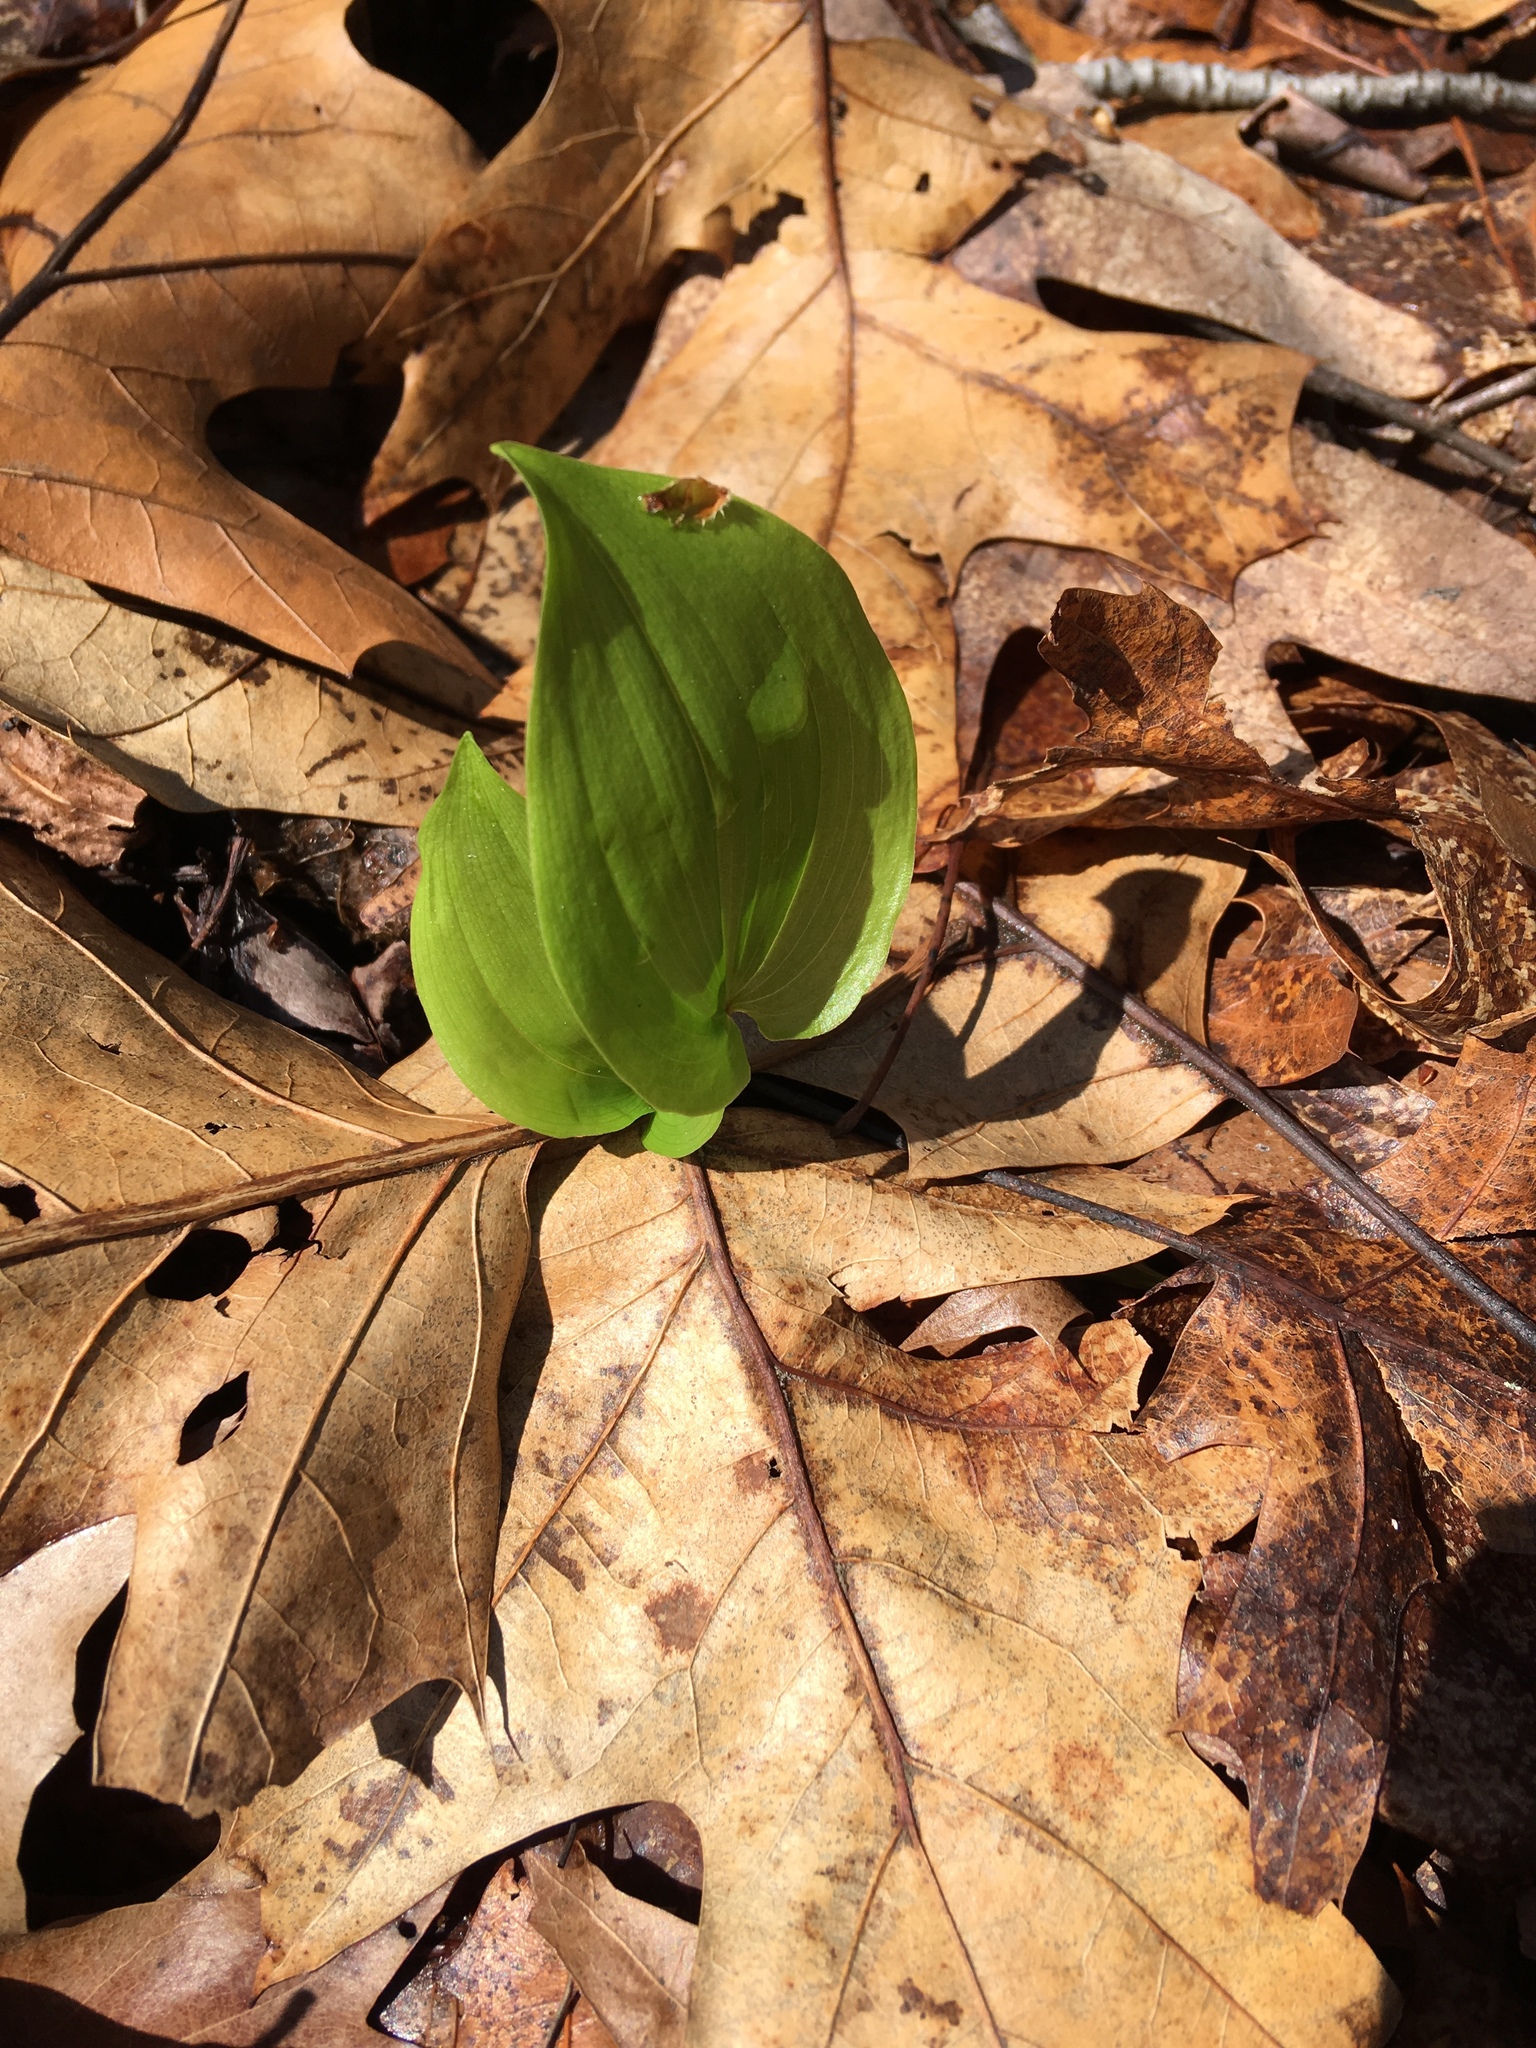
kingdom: Plantae
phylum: Tracheophyta
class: Liliopsida
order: Asparagales
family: Asparagaceae
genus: Maianthemum
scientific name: Maianthemum canadense
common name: False lily-of-the-valley
